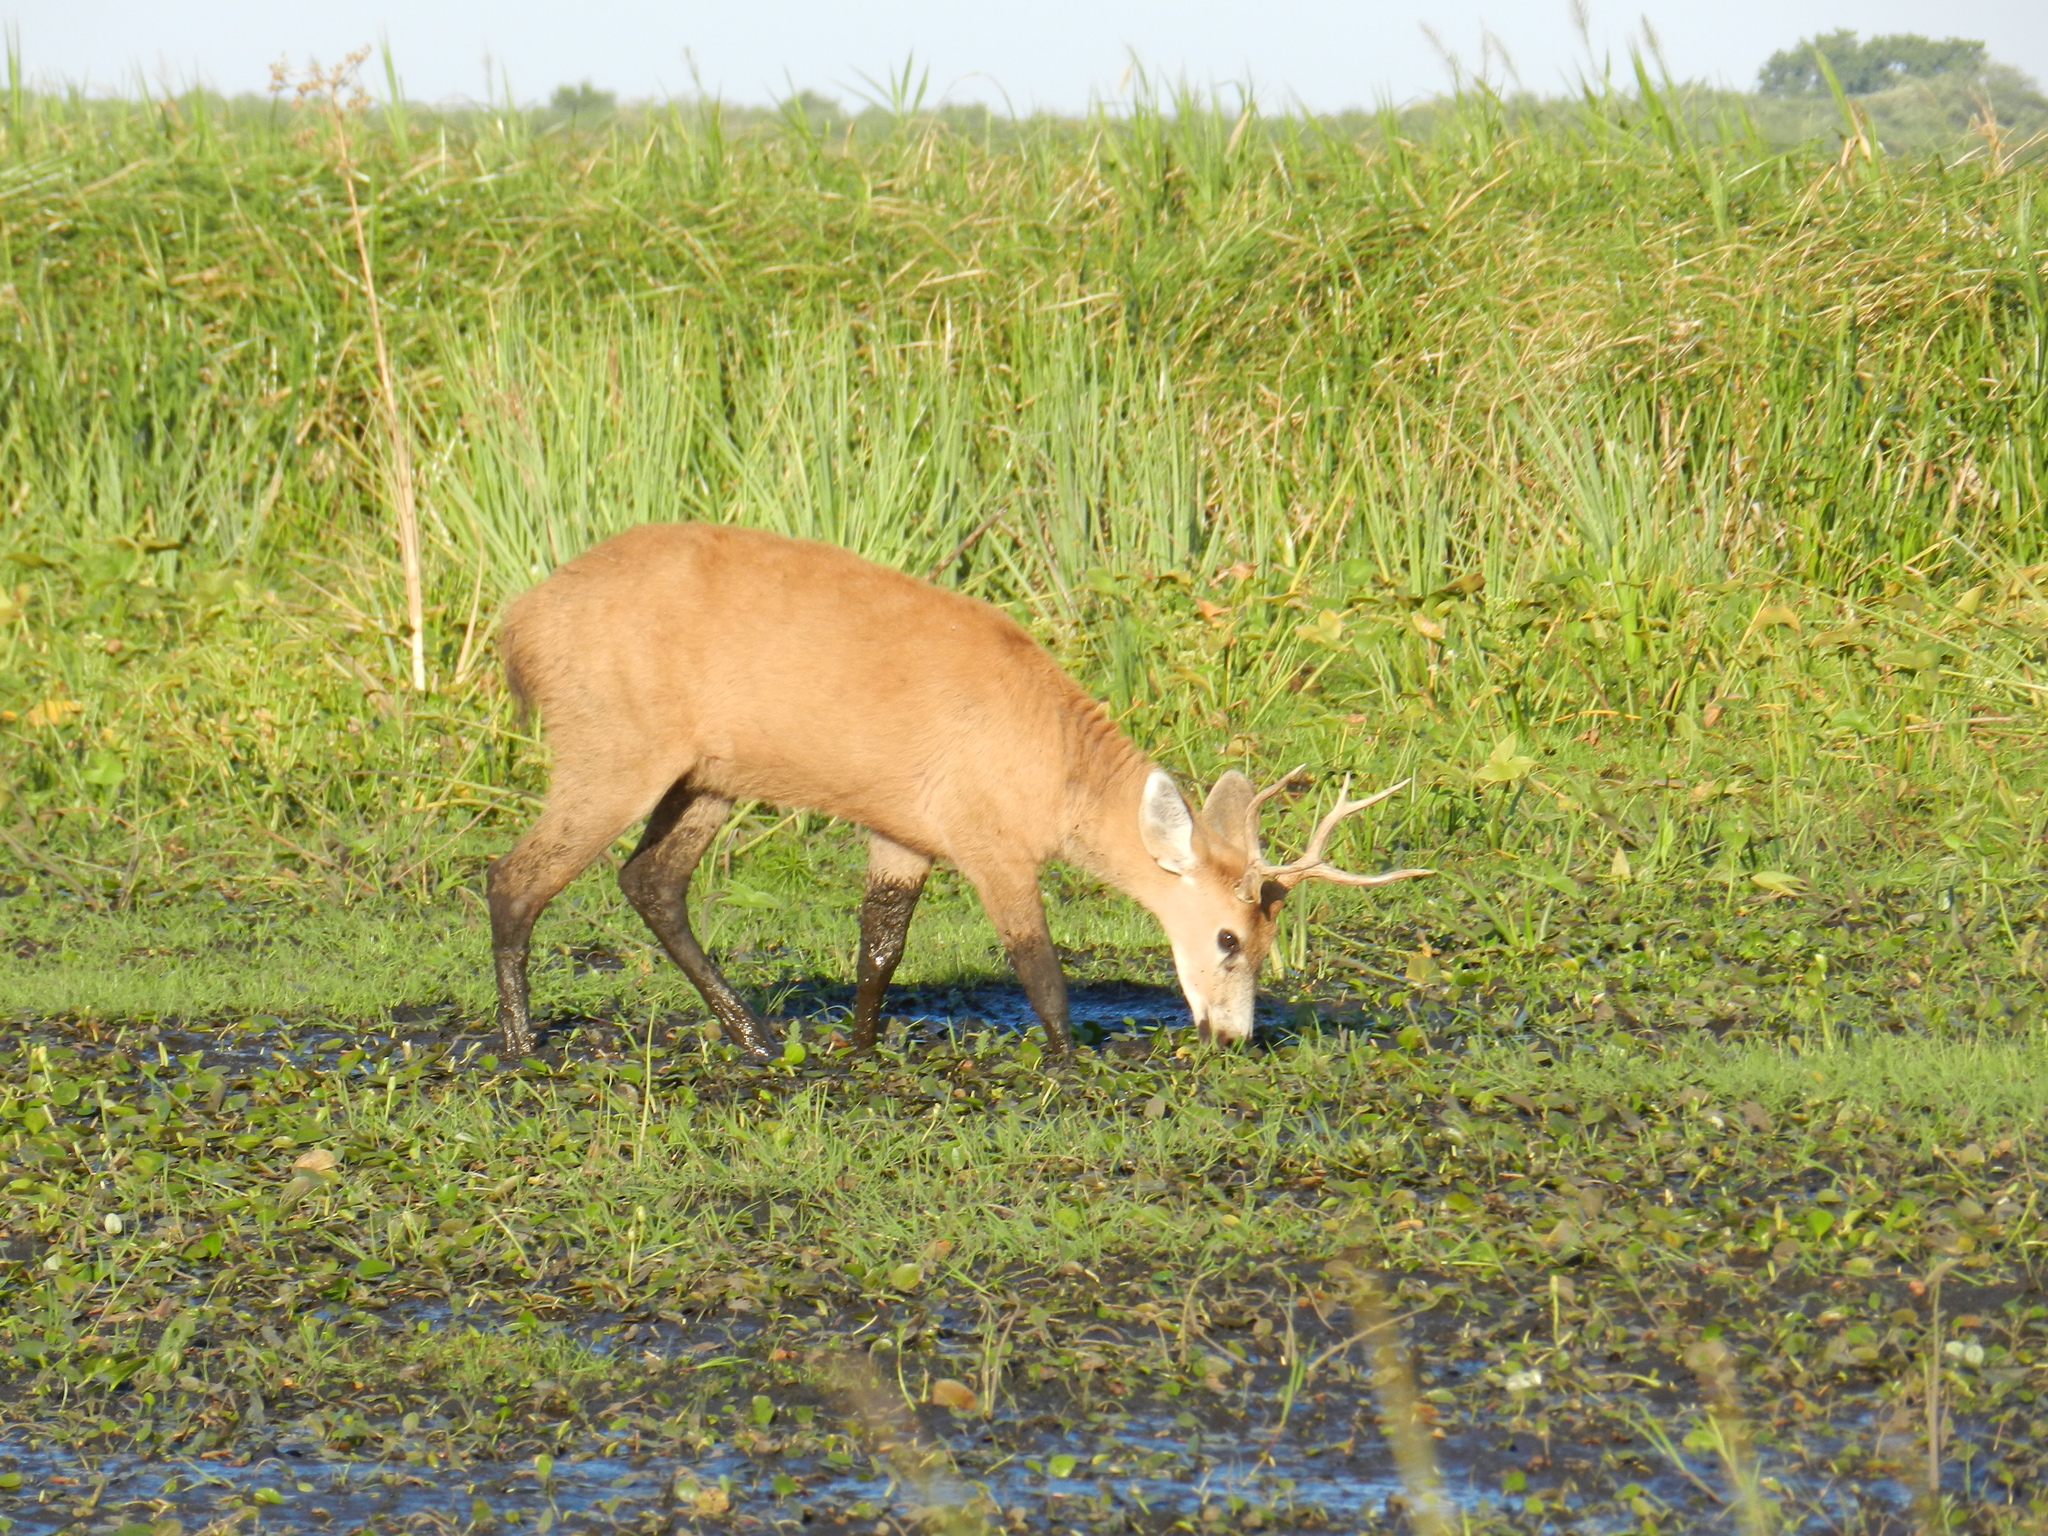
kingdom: Animalia
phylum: Chordata
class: Mammalia
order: Artiodactyla
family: Cervidae
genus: Blastocerus
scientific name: Blastocerus dichotomus
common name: Marsh deer
